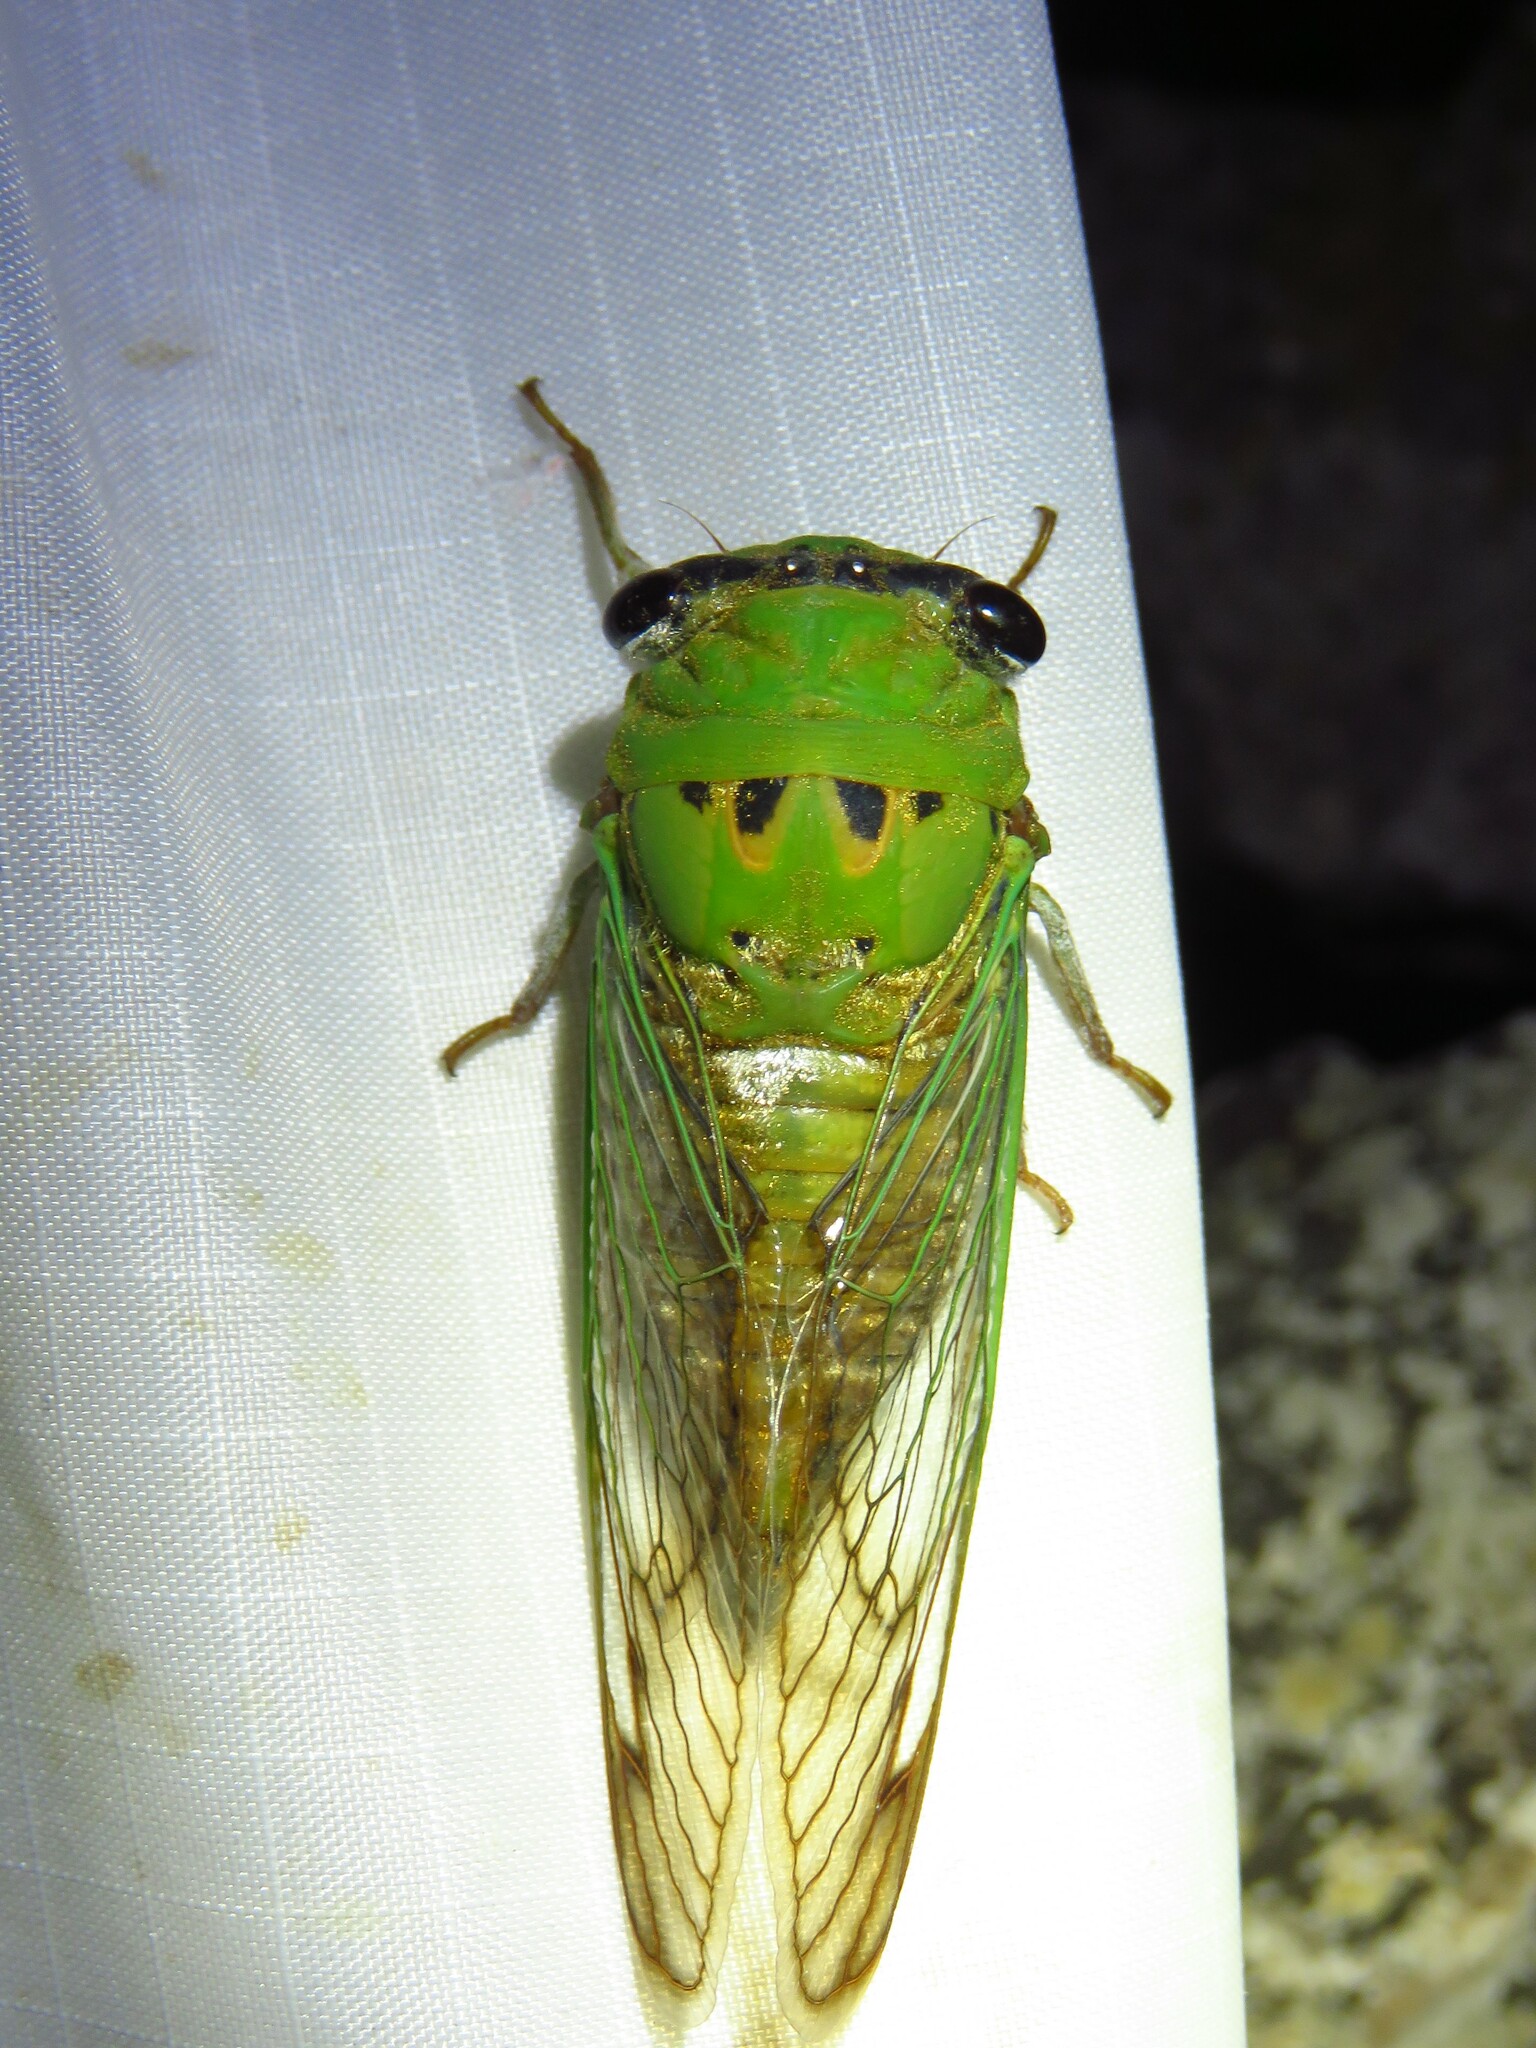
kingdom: Animalia
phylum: Arthropoda
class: Insecta
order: Hemiptera
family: Cicadidae
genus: Neotibicen
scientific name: Neotibicen superbus
